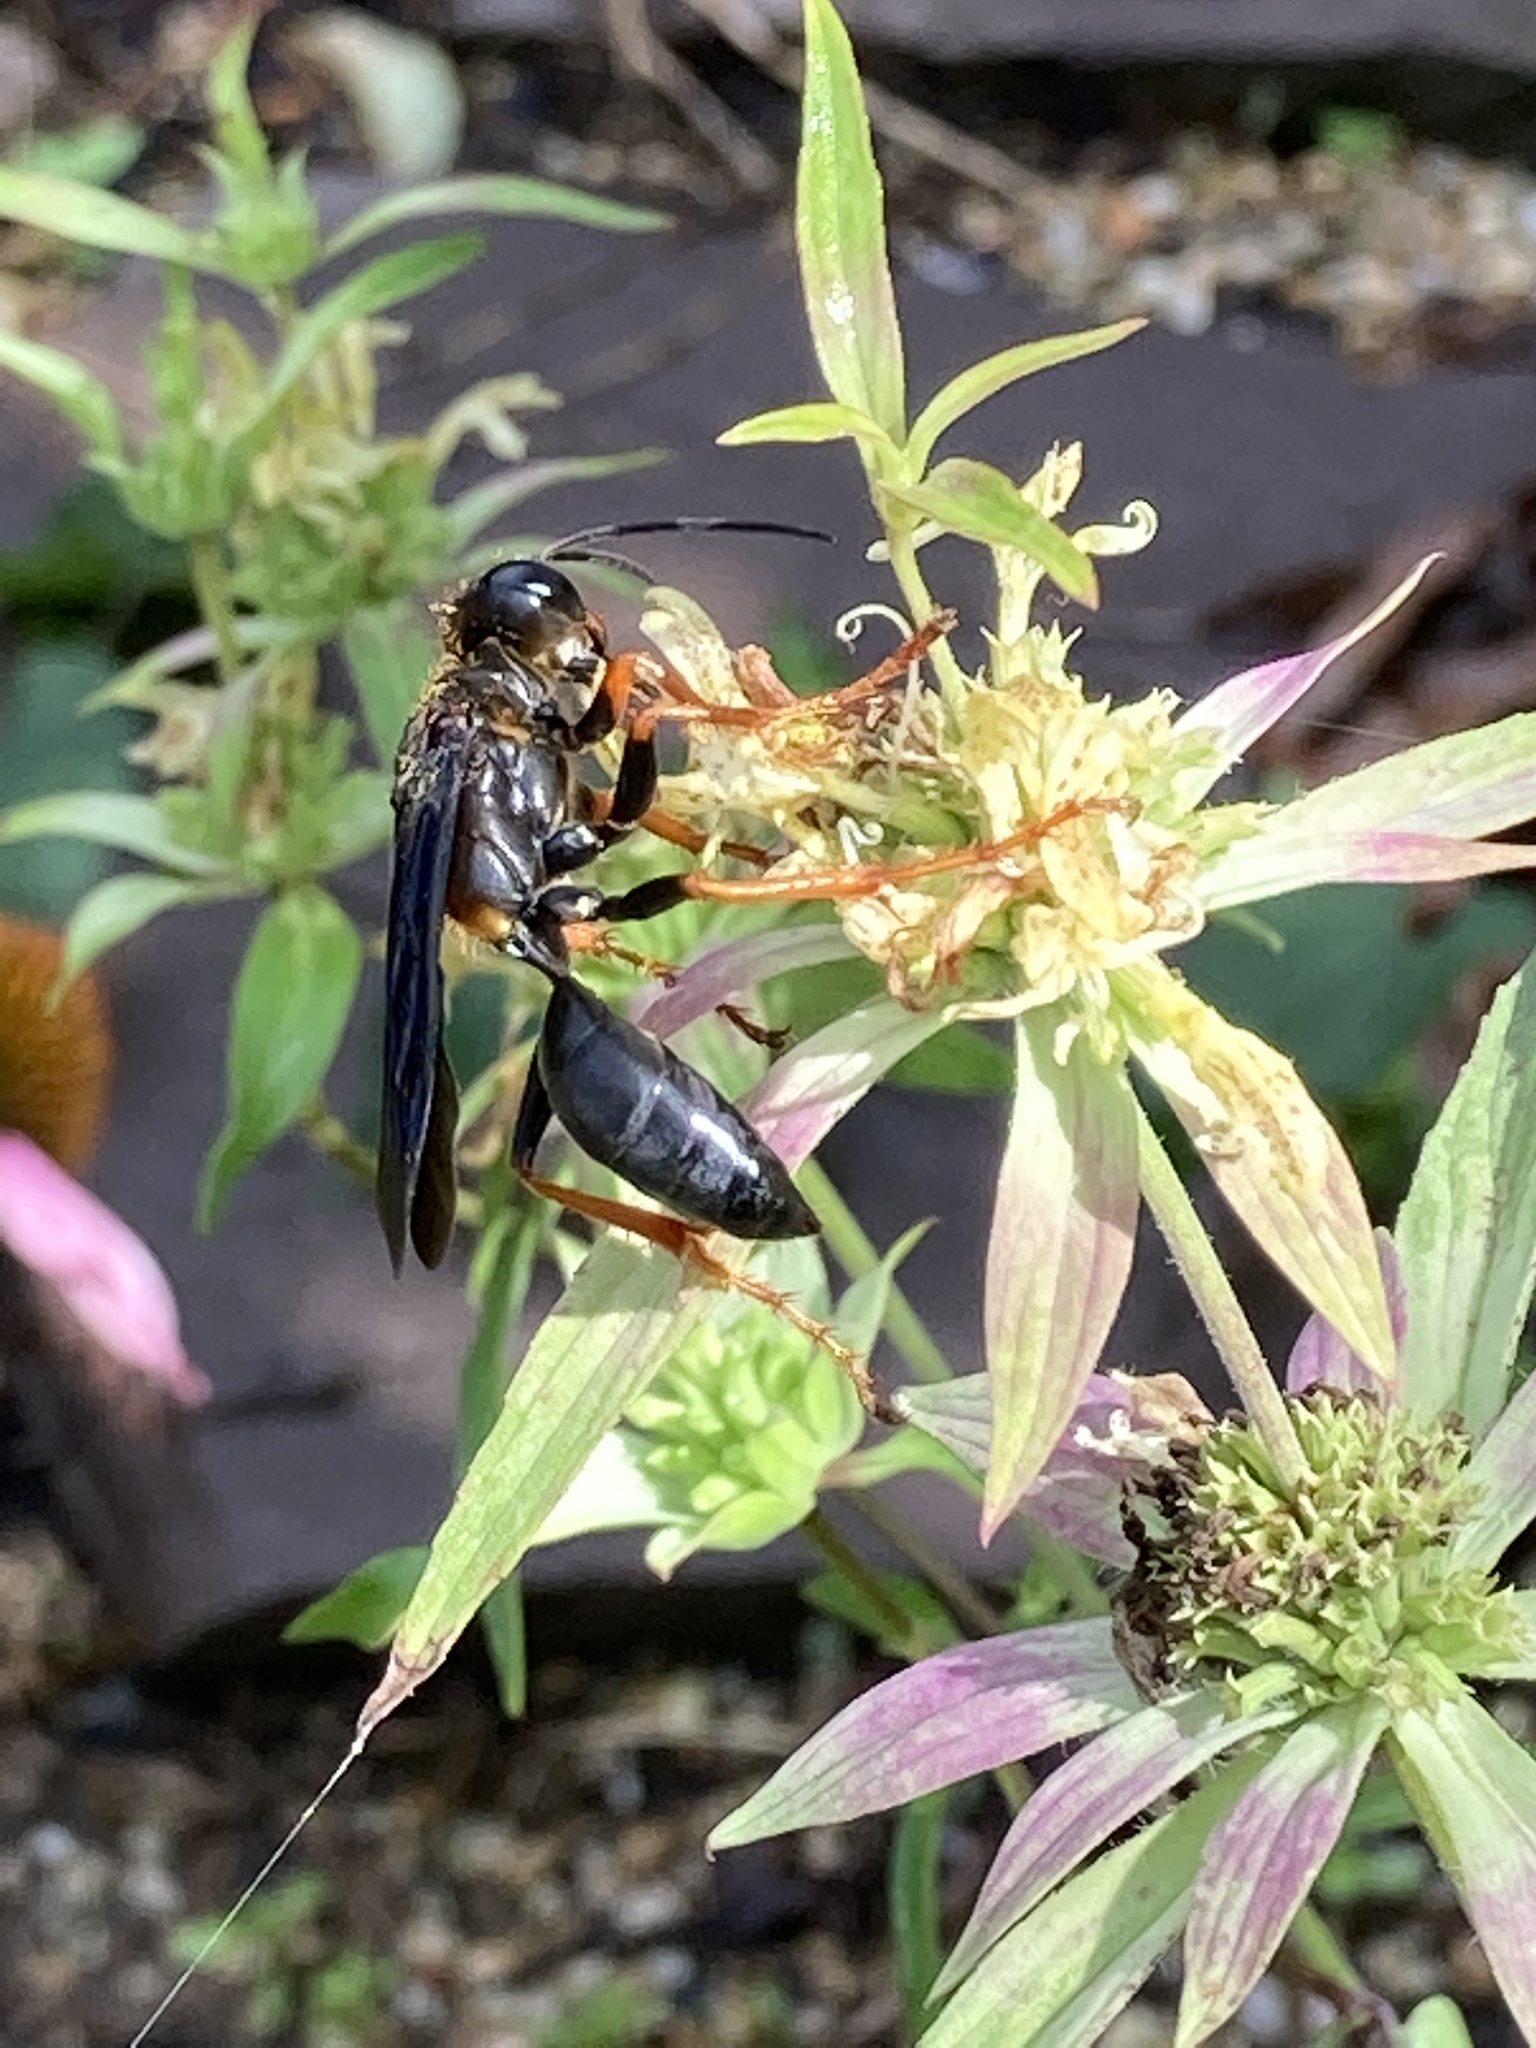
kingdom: Animalia
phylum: Arthropoda
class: Insecta
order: Hymenoptera
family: Sphecidae
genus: Sphex
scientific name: Sphex nudus
